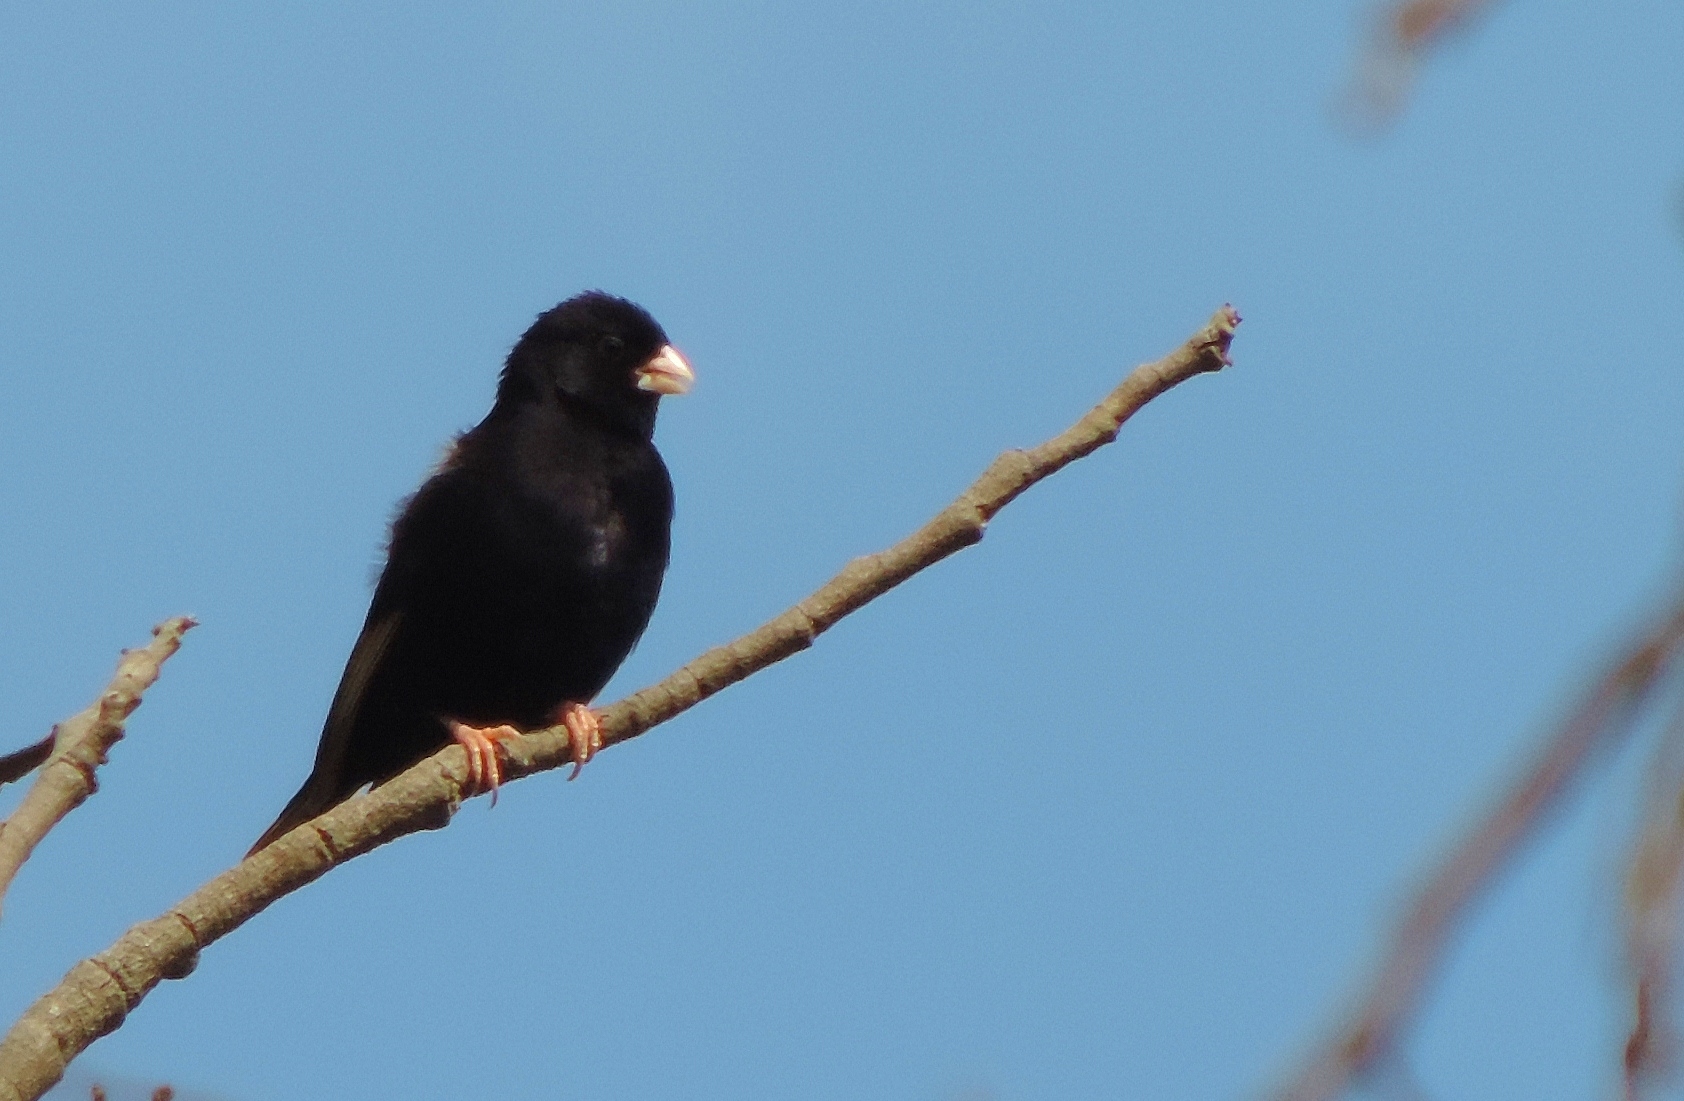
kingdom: Animalia
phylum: Chordata
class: Aves
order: Passeriformes
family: Viduidae
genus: Vidua
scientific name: Vidua purpurascens
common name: Purple indigobird
